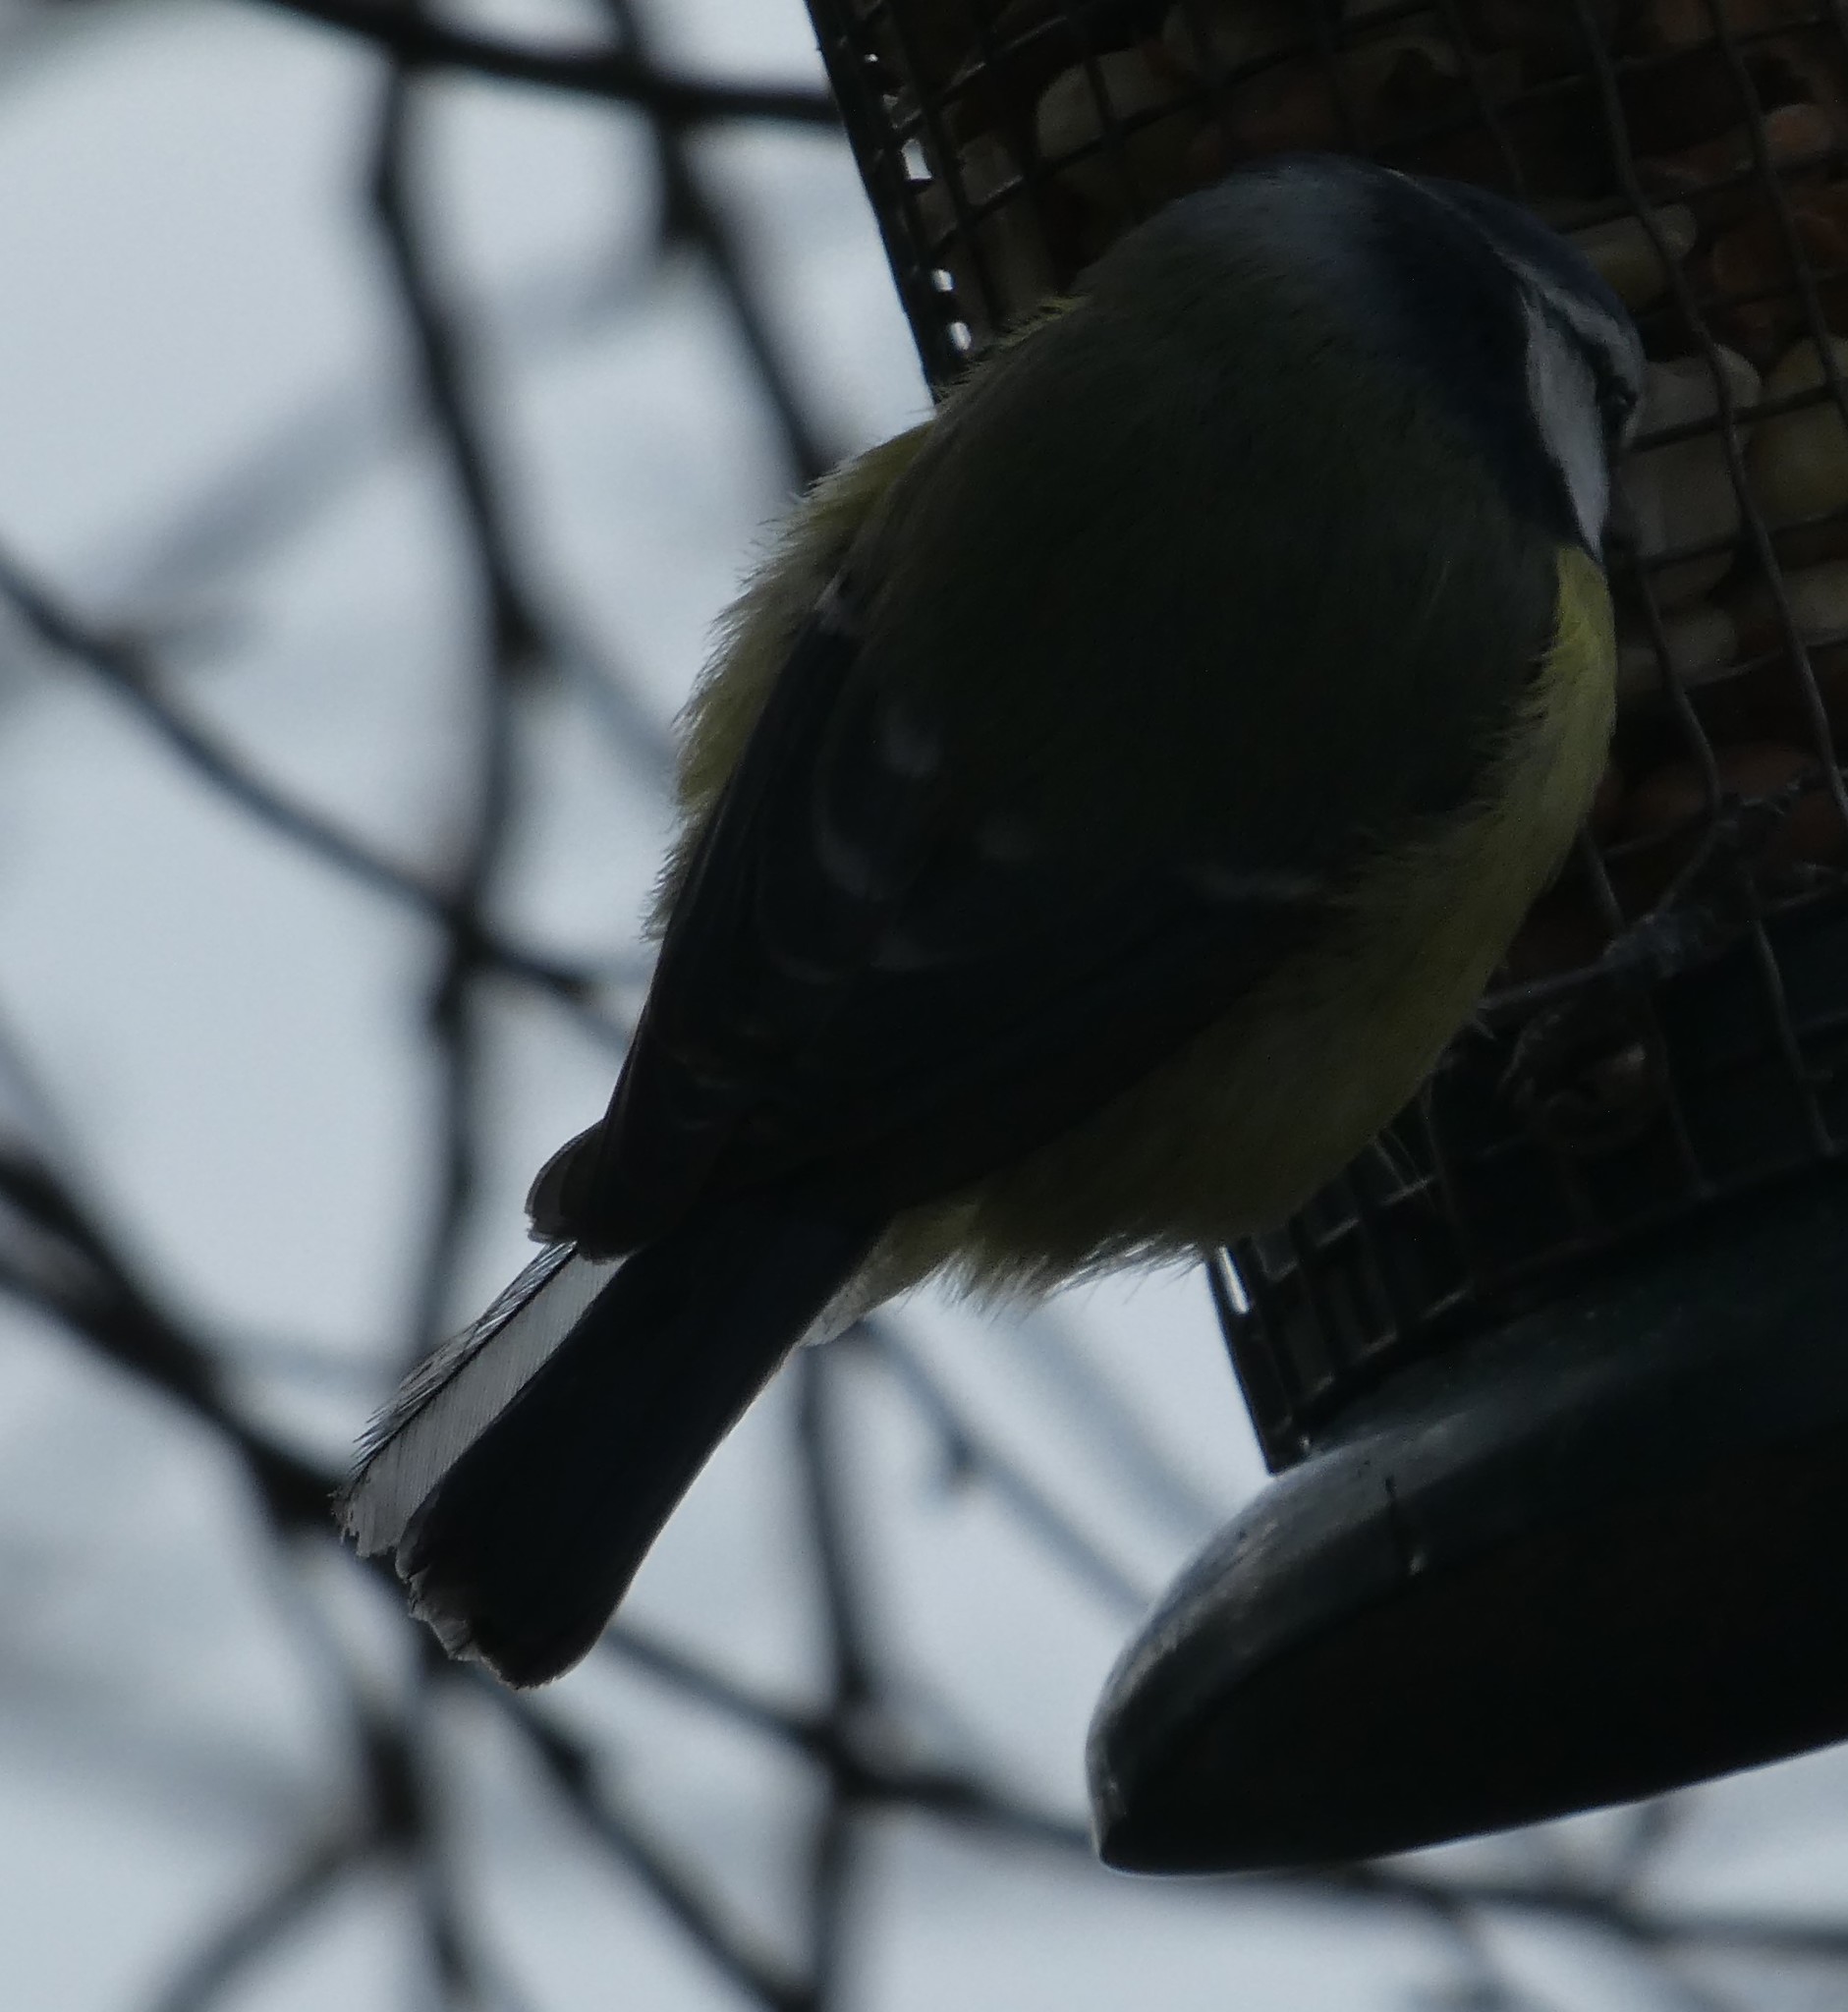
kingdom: Animalia
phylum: Chordata
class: Aves
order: Passeriformes
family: Paridae
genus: Cyanistes
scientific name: Cyanistes caeruleus
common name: Eurasian blue tit
